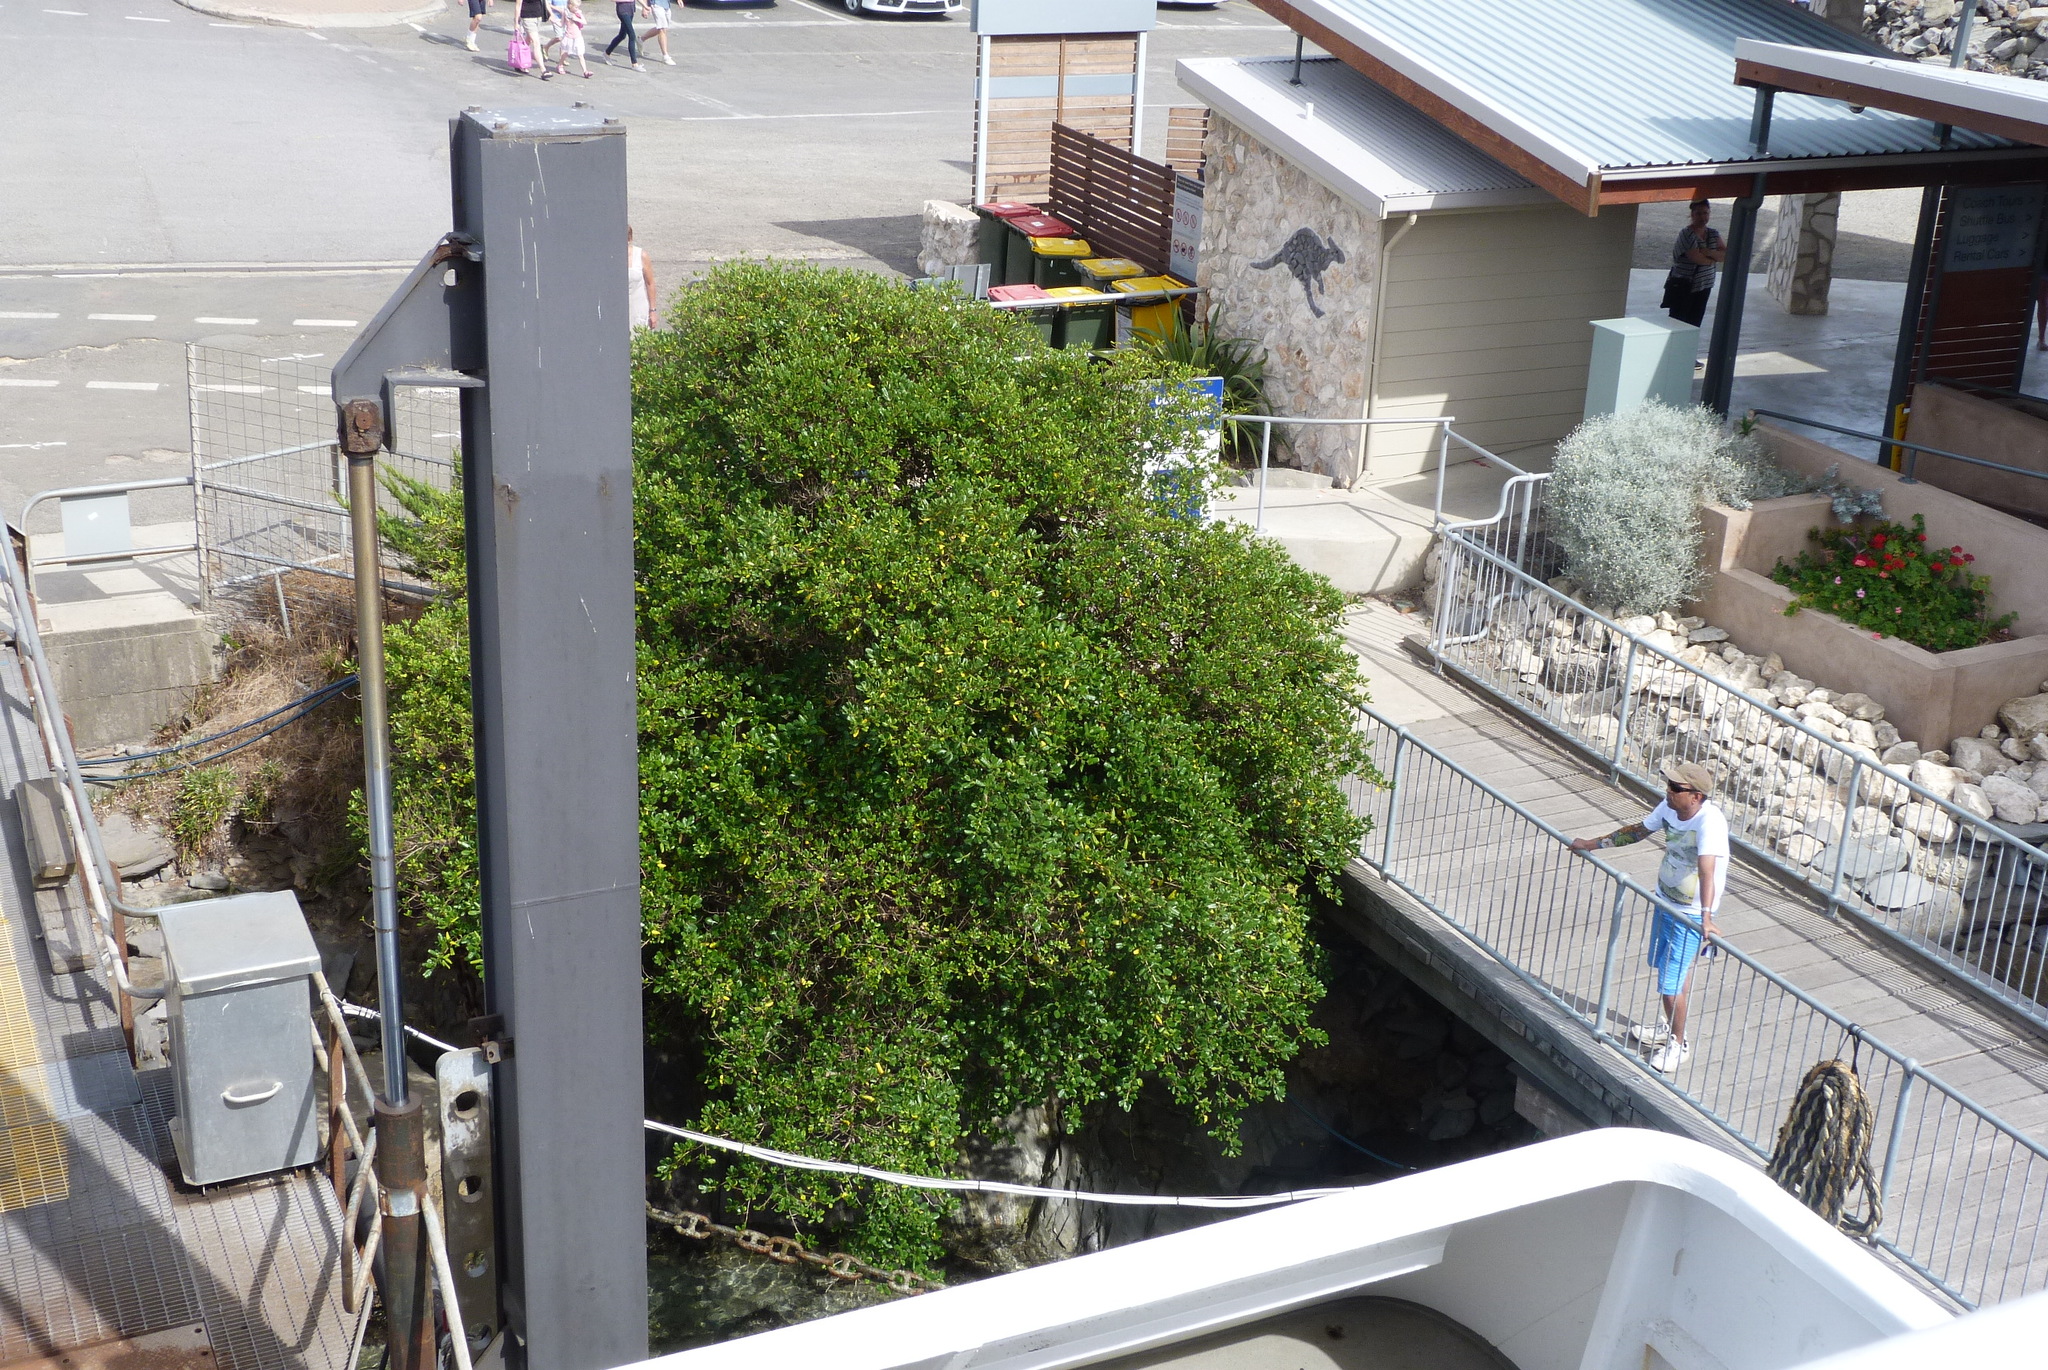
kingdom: Plantae
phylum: Tracheophyta
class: Magnoliopsida
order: Gentianales
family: Rubiaceae
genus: Coprosma
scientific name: Coprosma repens
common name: Tree bedstraw
